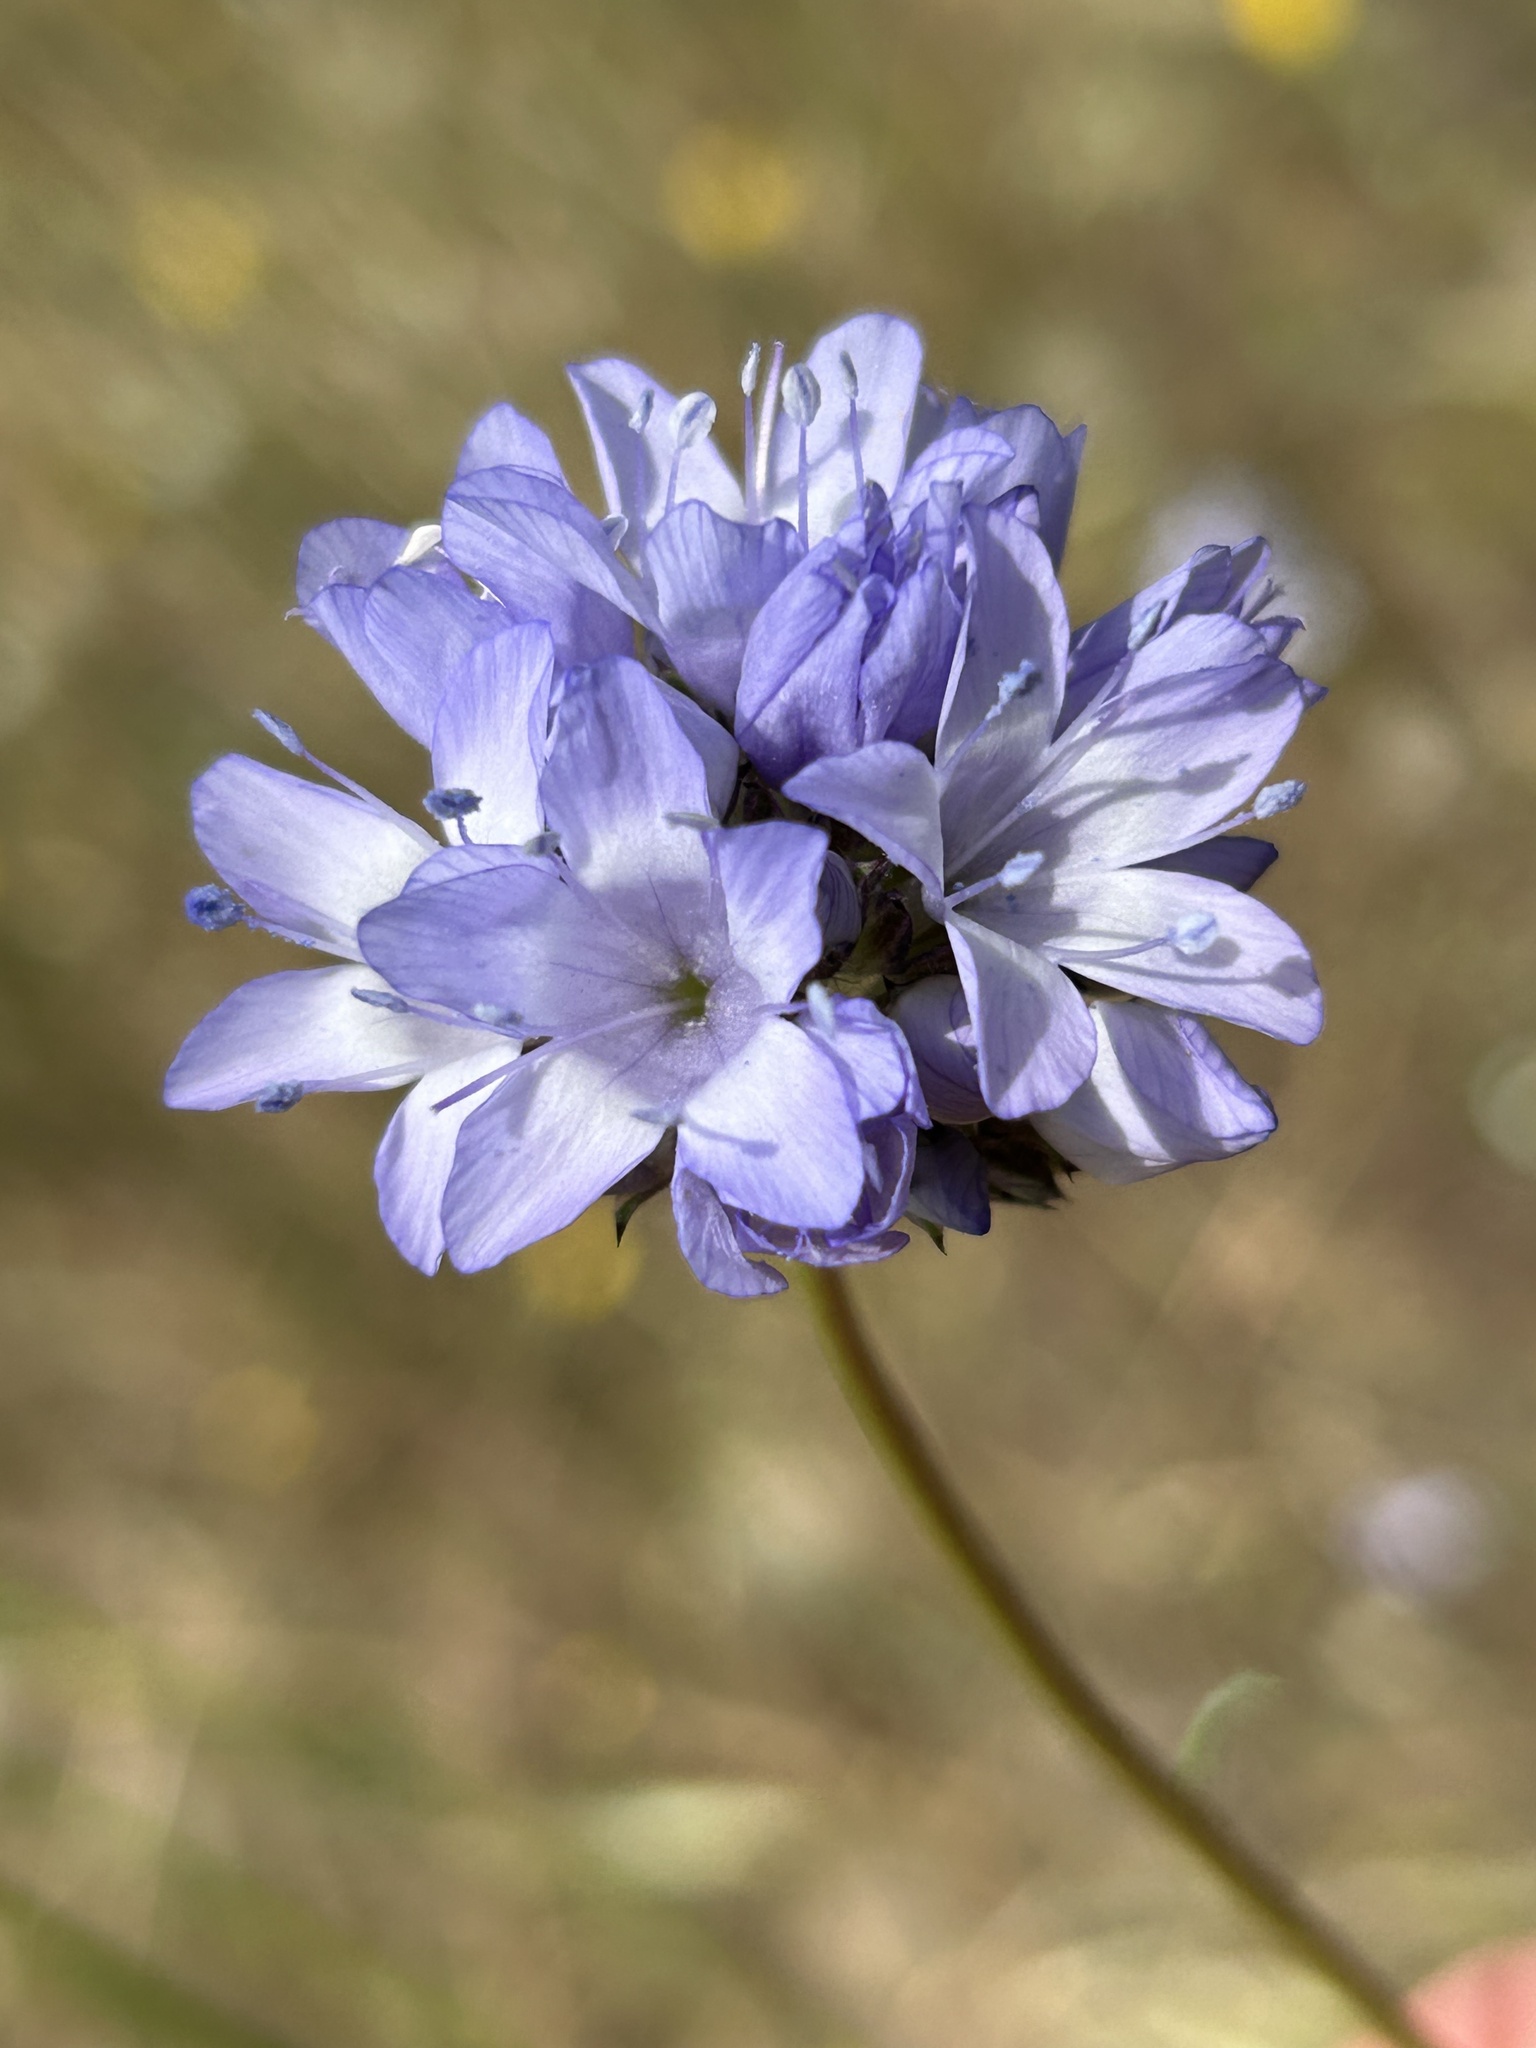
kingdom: Plantae
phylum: Tracheophyta
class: Magnoliopsida
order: Ericales
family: Polemoniaceae
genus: Gilia
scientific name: Gilia capitata
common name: Bluehead gilia
